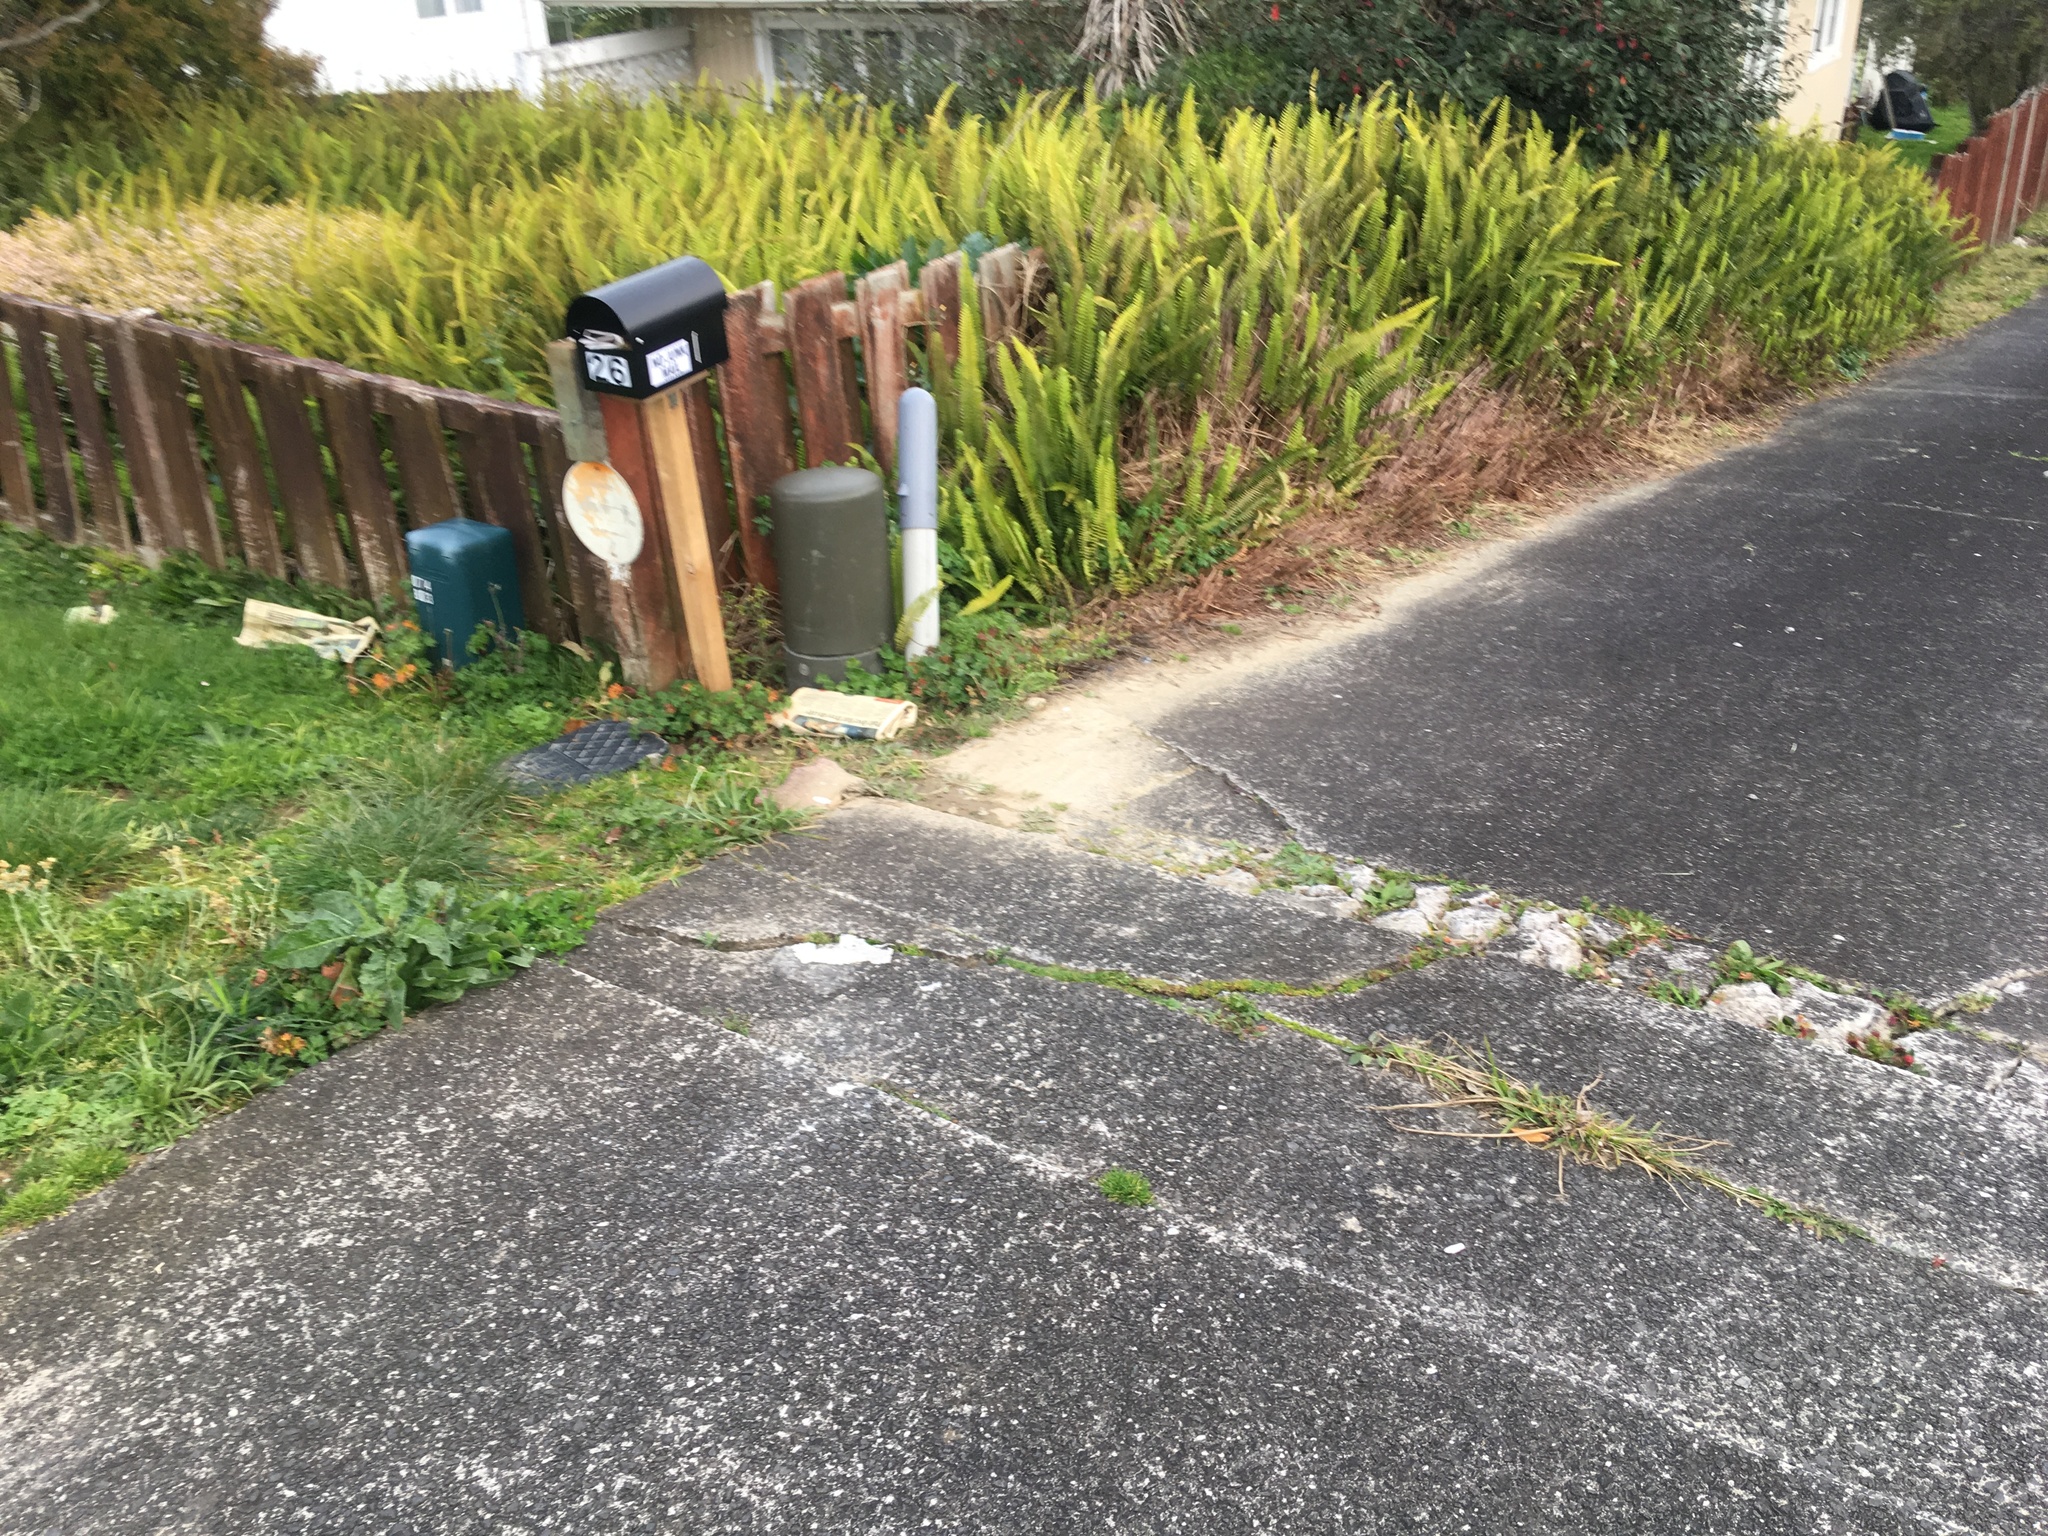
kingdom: Plantae
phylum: Tracheophyta
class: Polypodiopsida
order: Polypodiales
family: Nephrolepidaceae
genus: Nephrolepis
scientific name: Nephrolepis cordifolia
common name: Narrow swordfern
